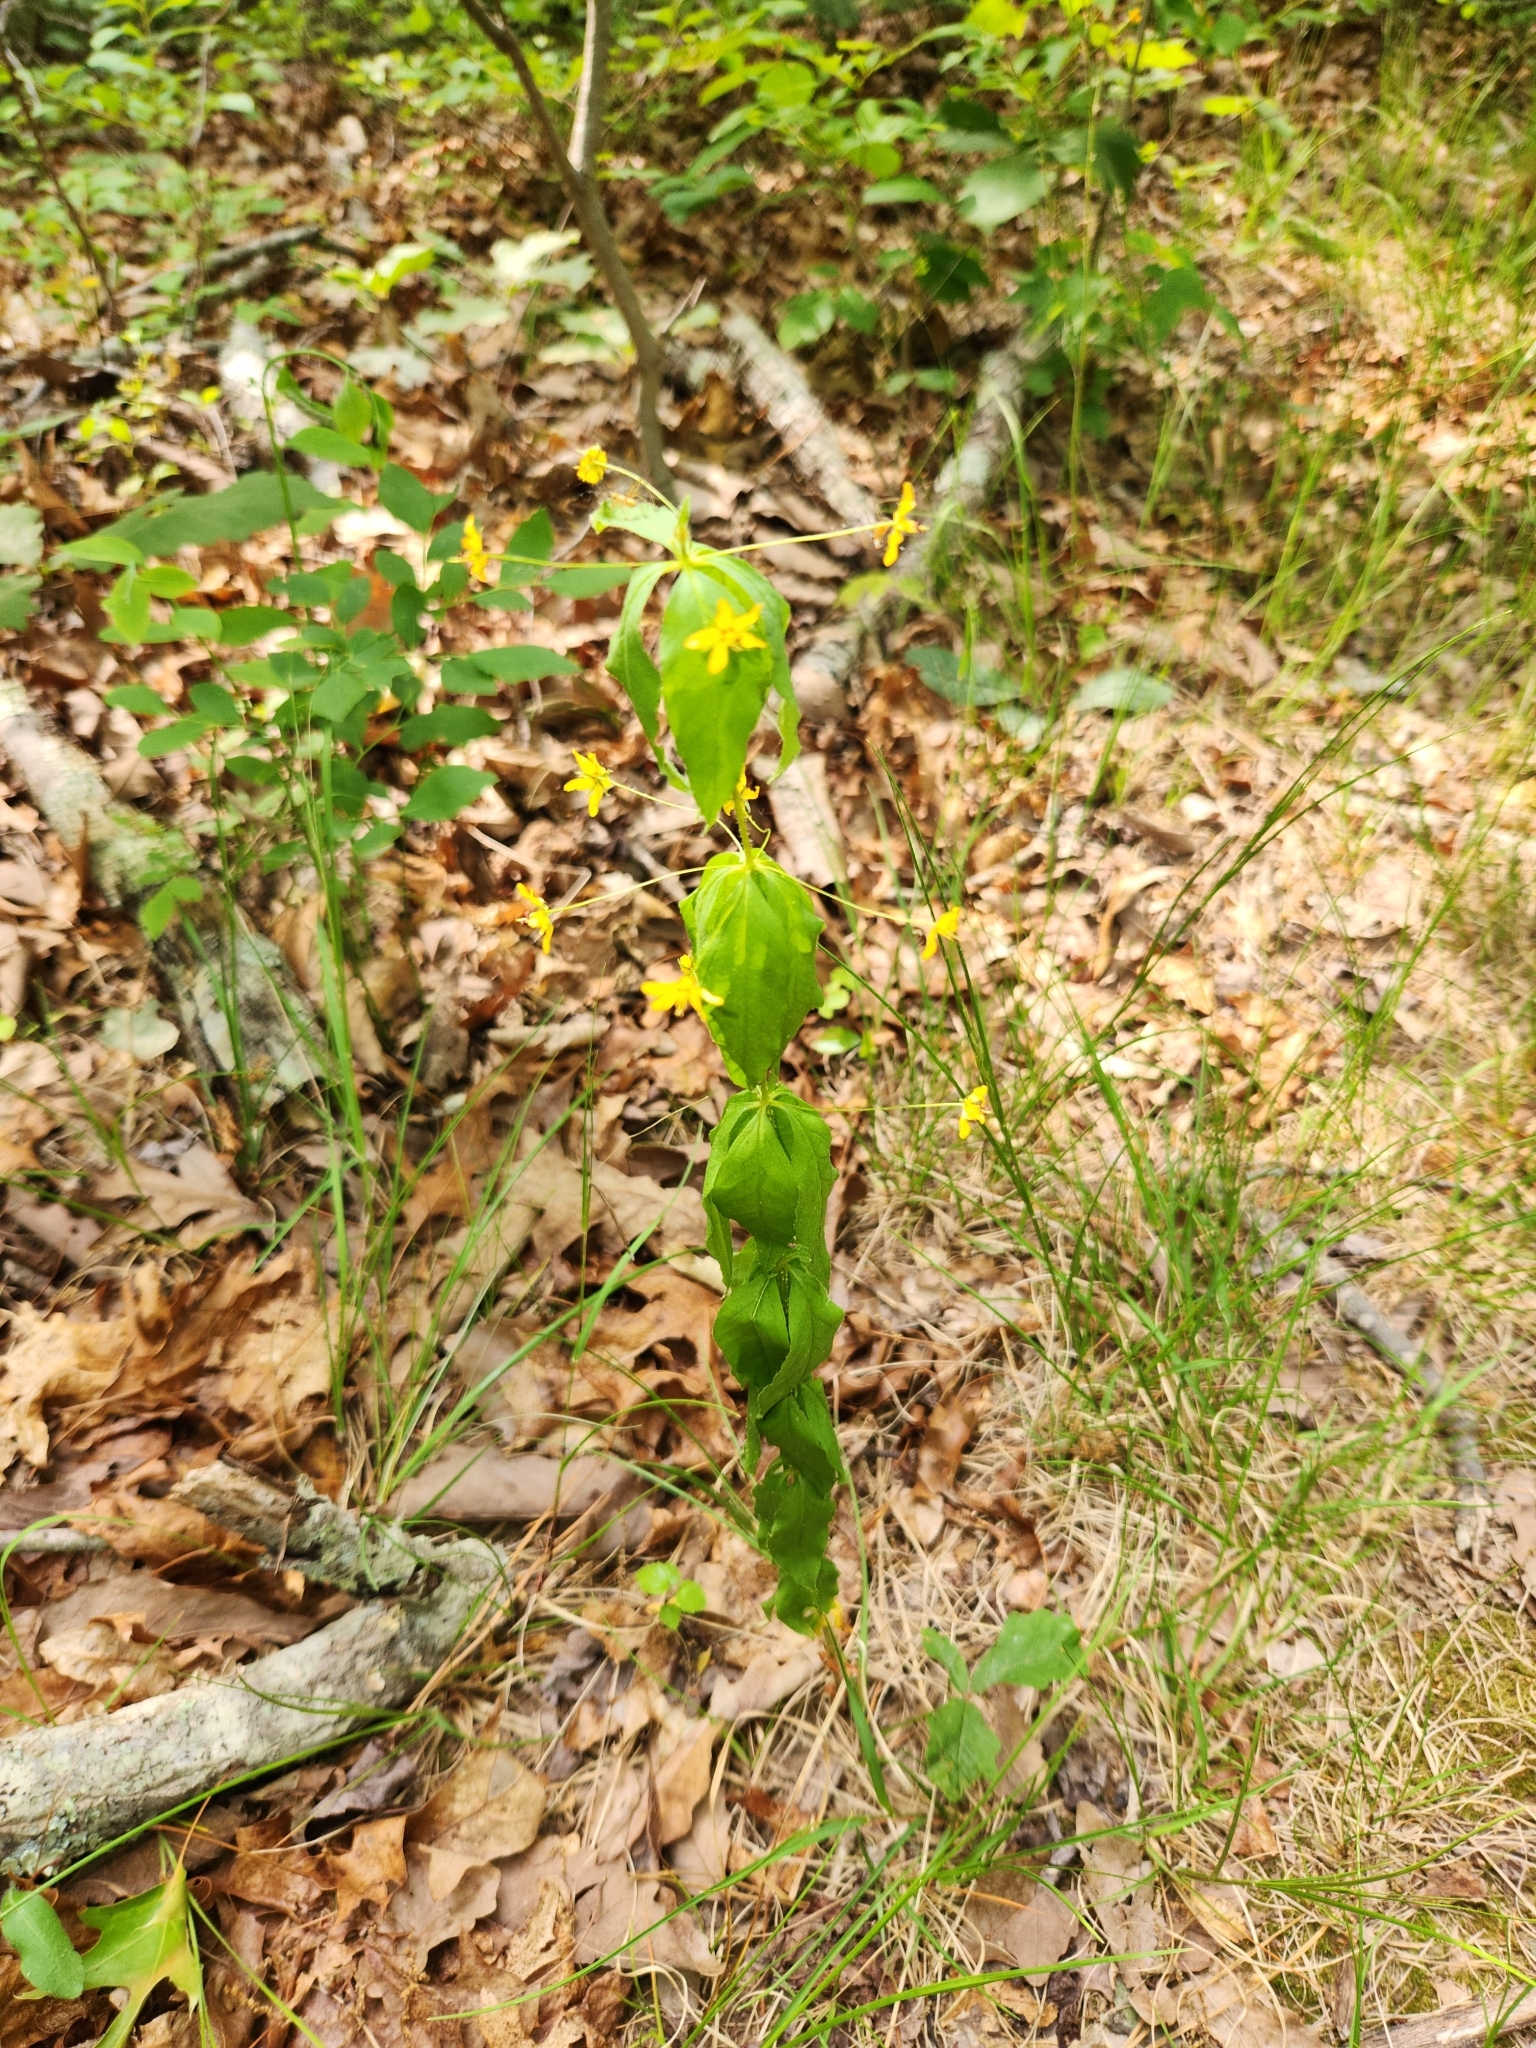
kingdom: Plantae
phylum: Tracheophyta
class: Magnoliopsida
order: Ericales
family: Primulaceae
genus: Lysimachia
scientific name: Lysimachia quadrifolia
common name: Whorled loosestrife
